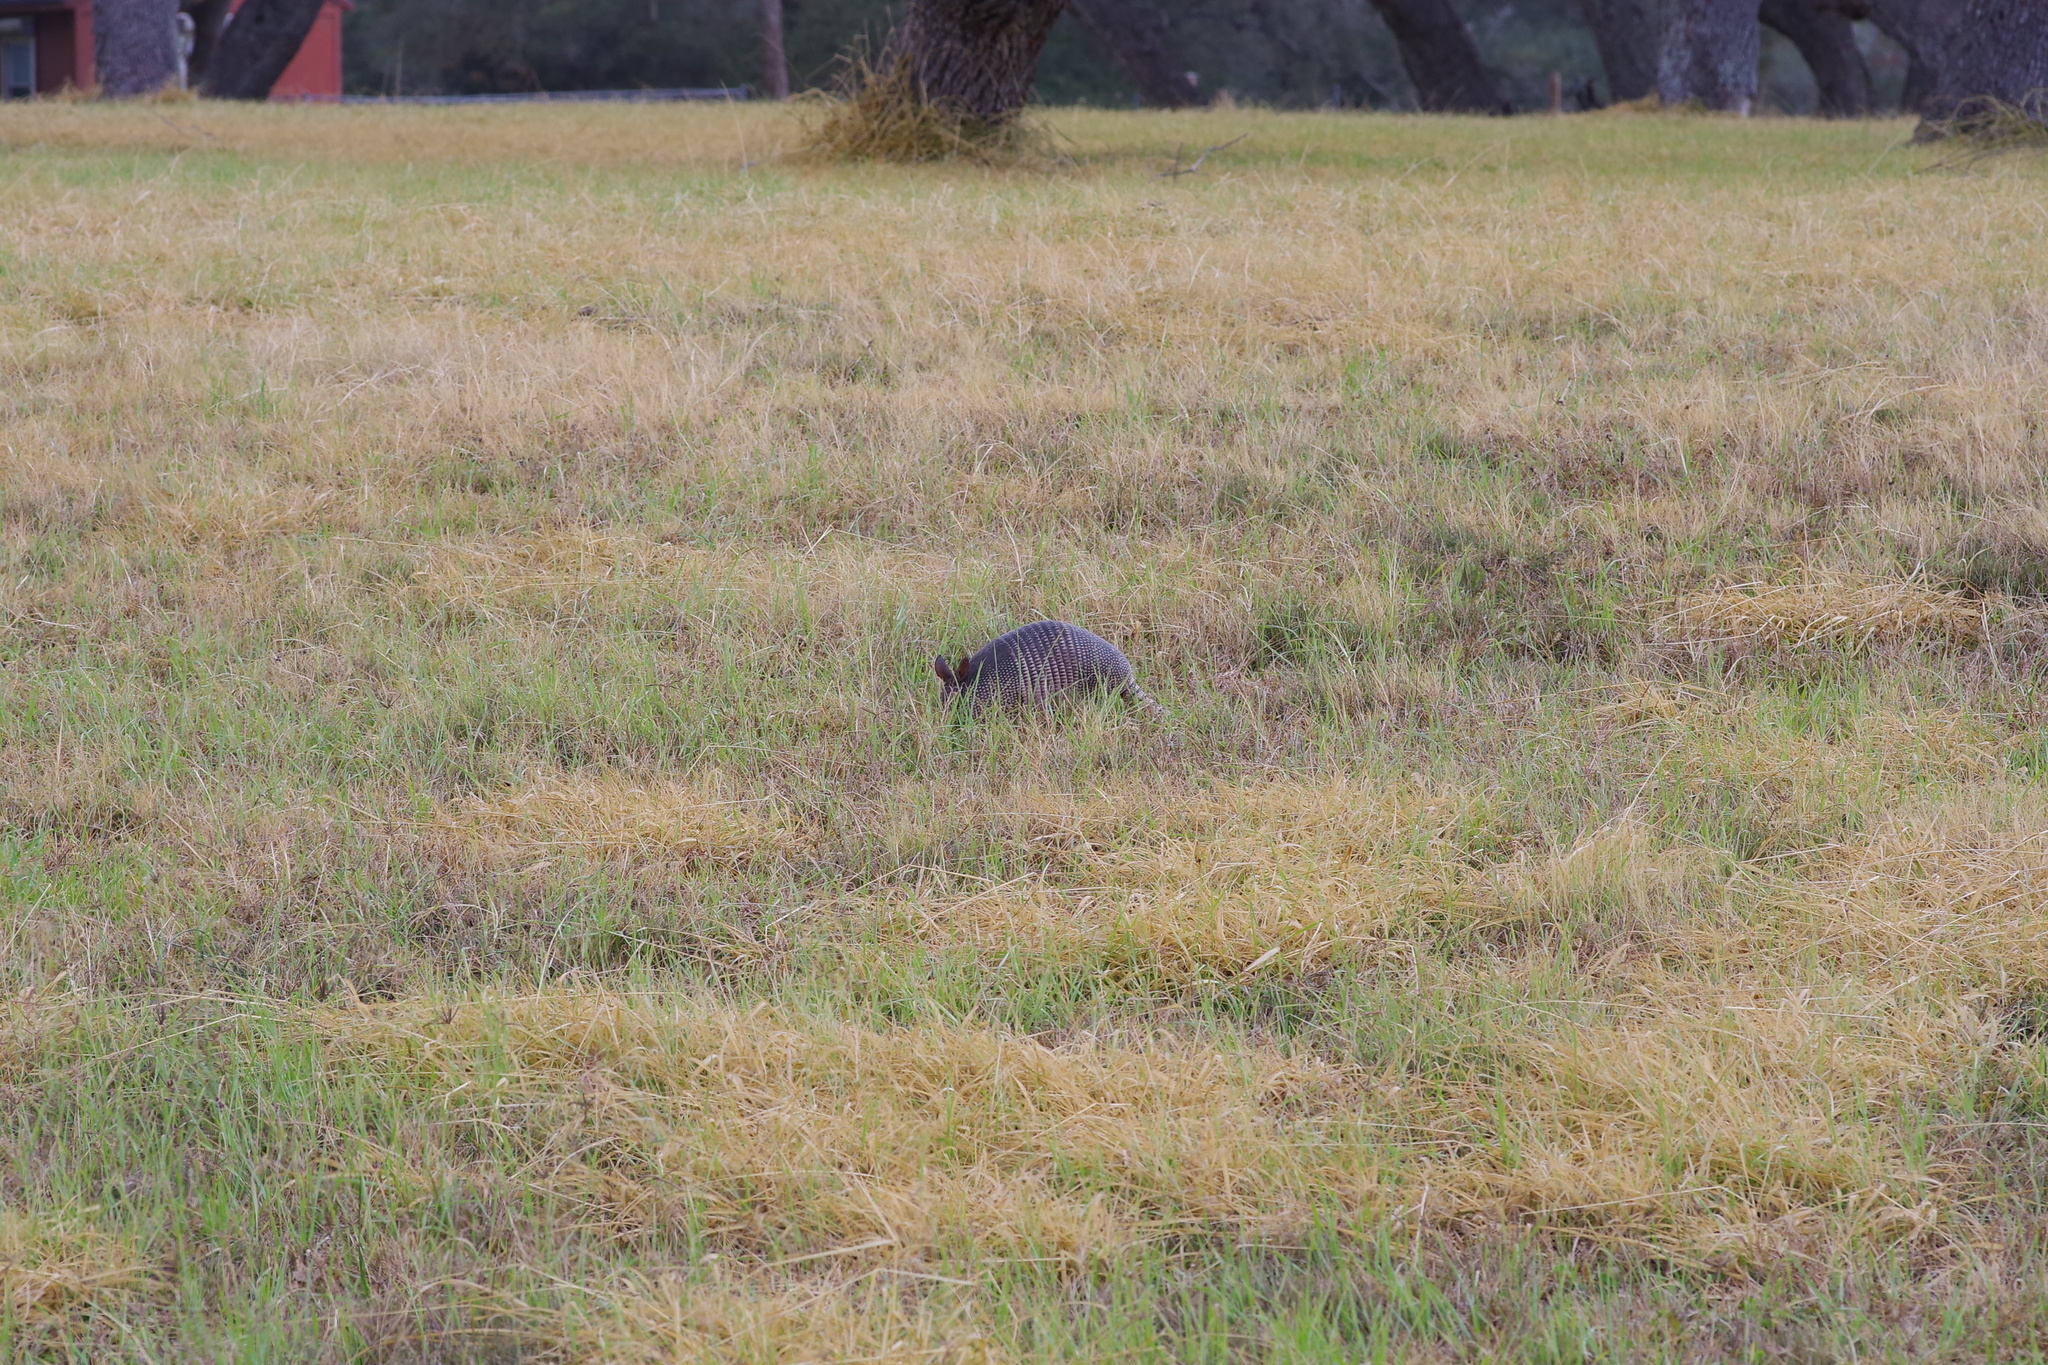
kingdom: Animalia
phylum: Chordata
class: Mammalia
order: Cingulata
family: Dasypodidae
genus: Dasypus
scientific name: Dasypus novemcinctus
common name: Nine-banded armadillo
